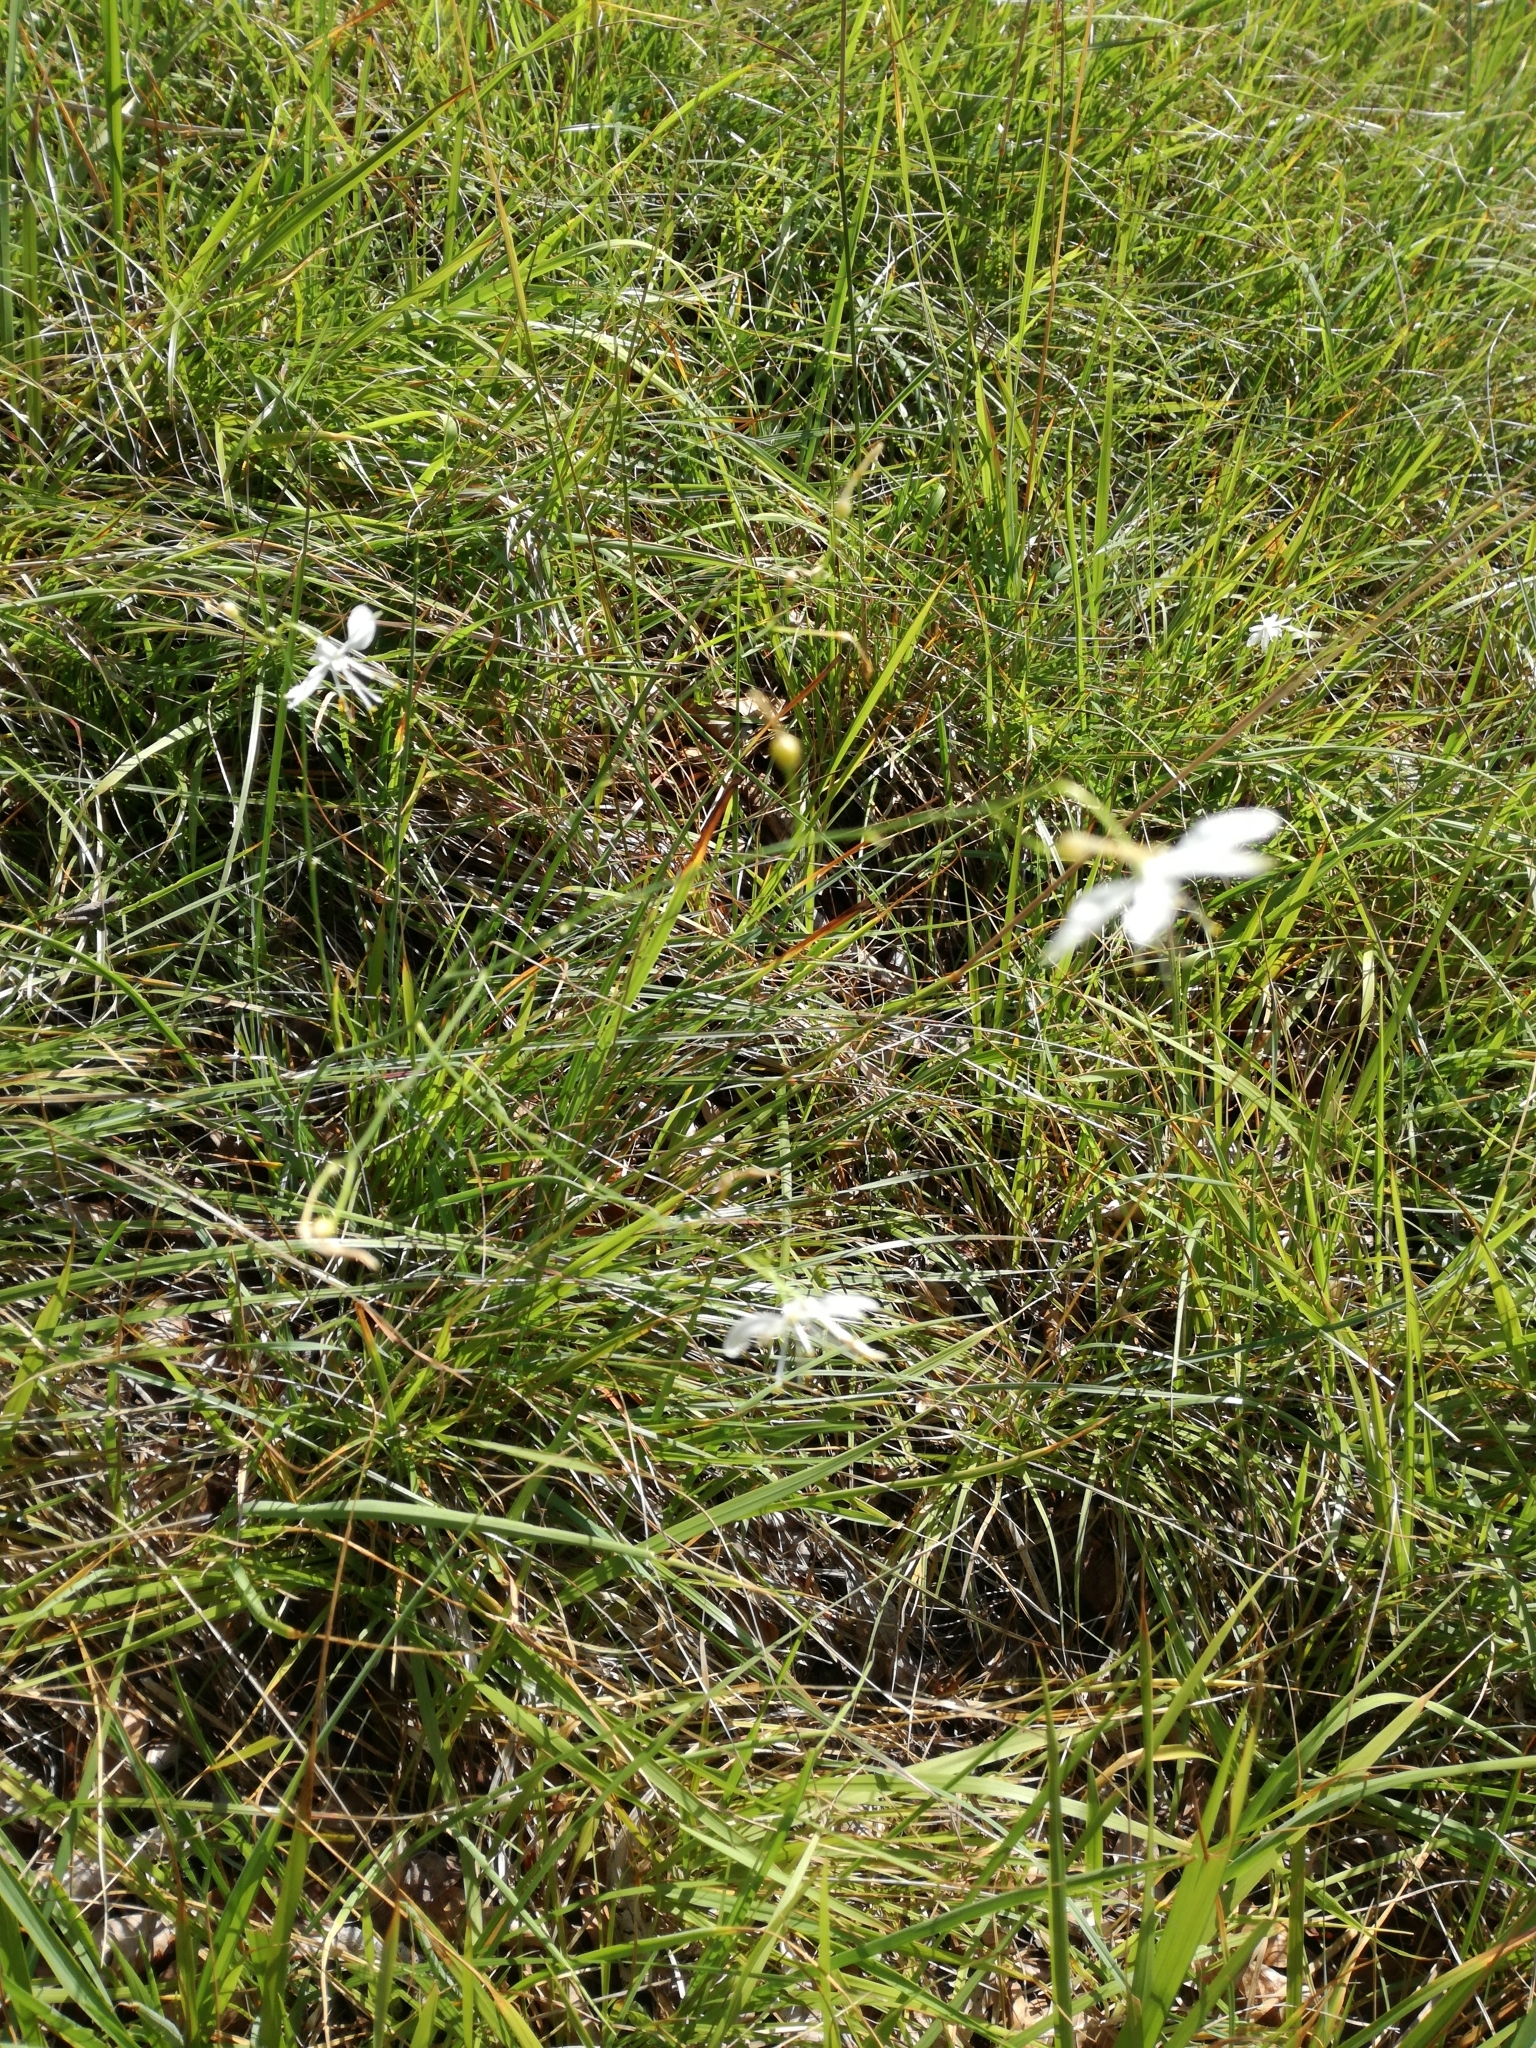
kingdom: Plantae
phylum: Tracheophyta
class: Liliopsida
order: Asparagales
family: Asparagaceae
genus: Anthericum
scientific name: Anthericum ramosum
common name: Branched st. bernard's-lily
